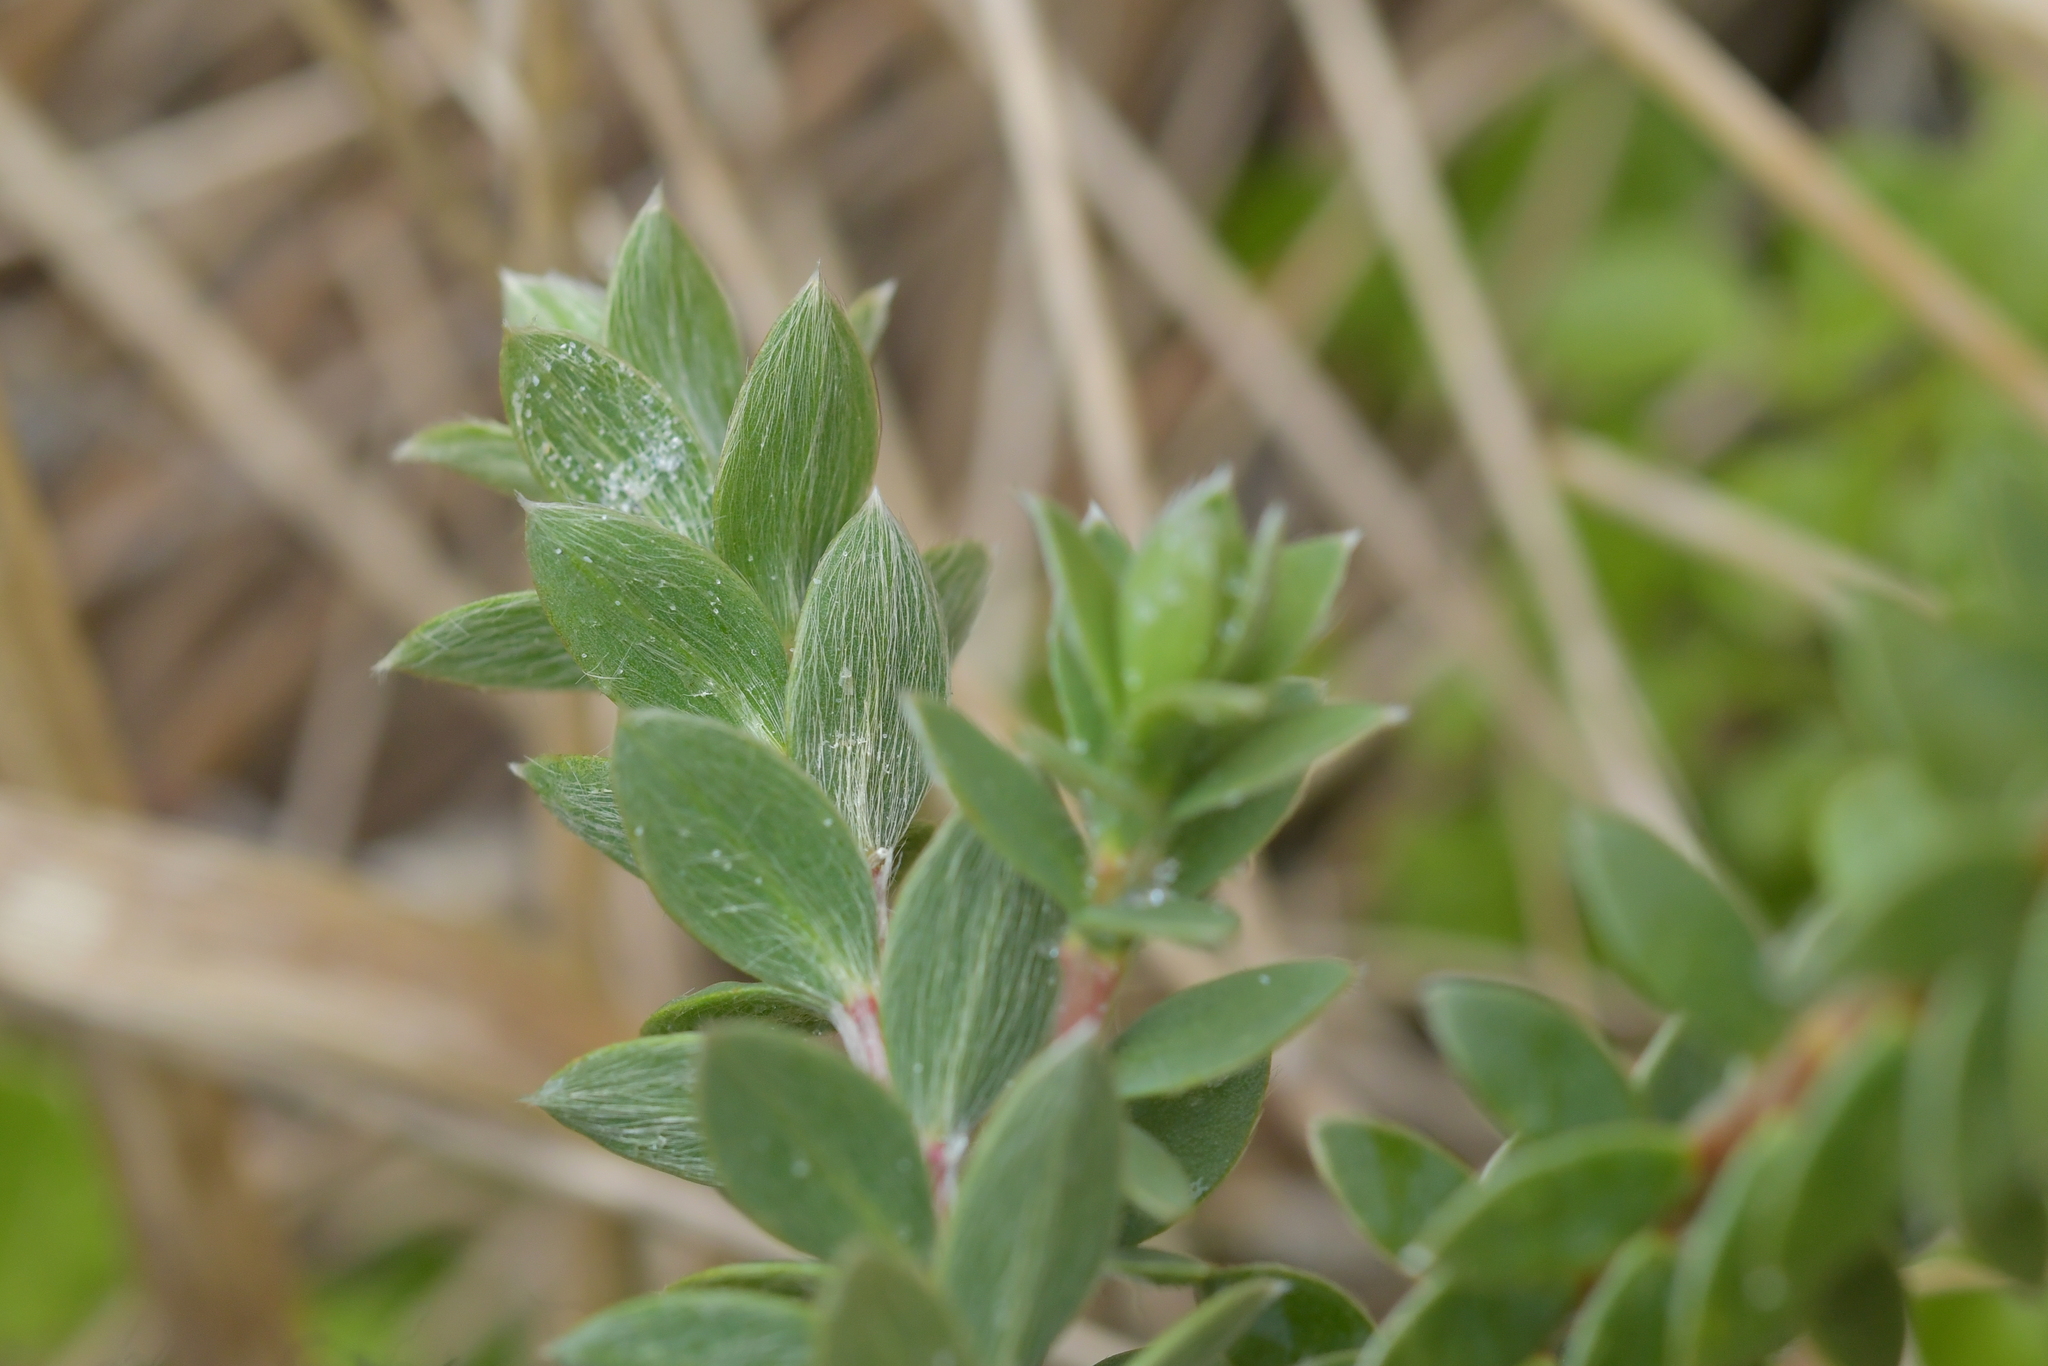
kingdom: Plantae
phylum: Tracheophyta
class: Magnoliopsida
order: Malvales
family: Thymelaeaceae
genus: Pimelea
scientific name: Pimelea villosa
